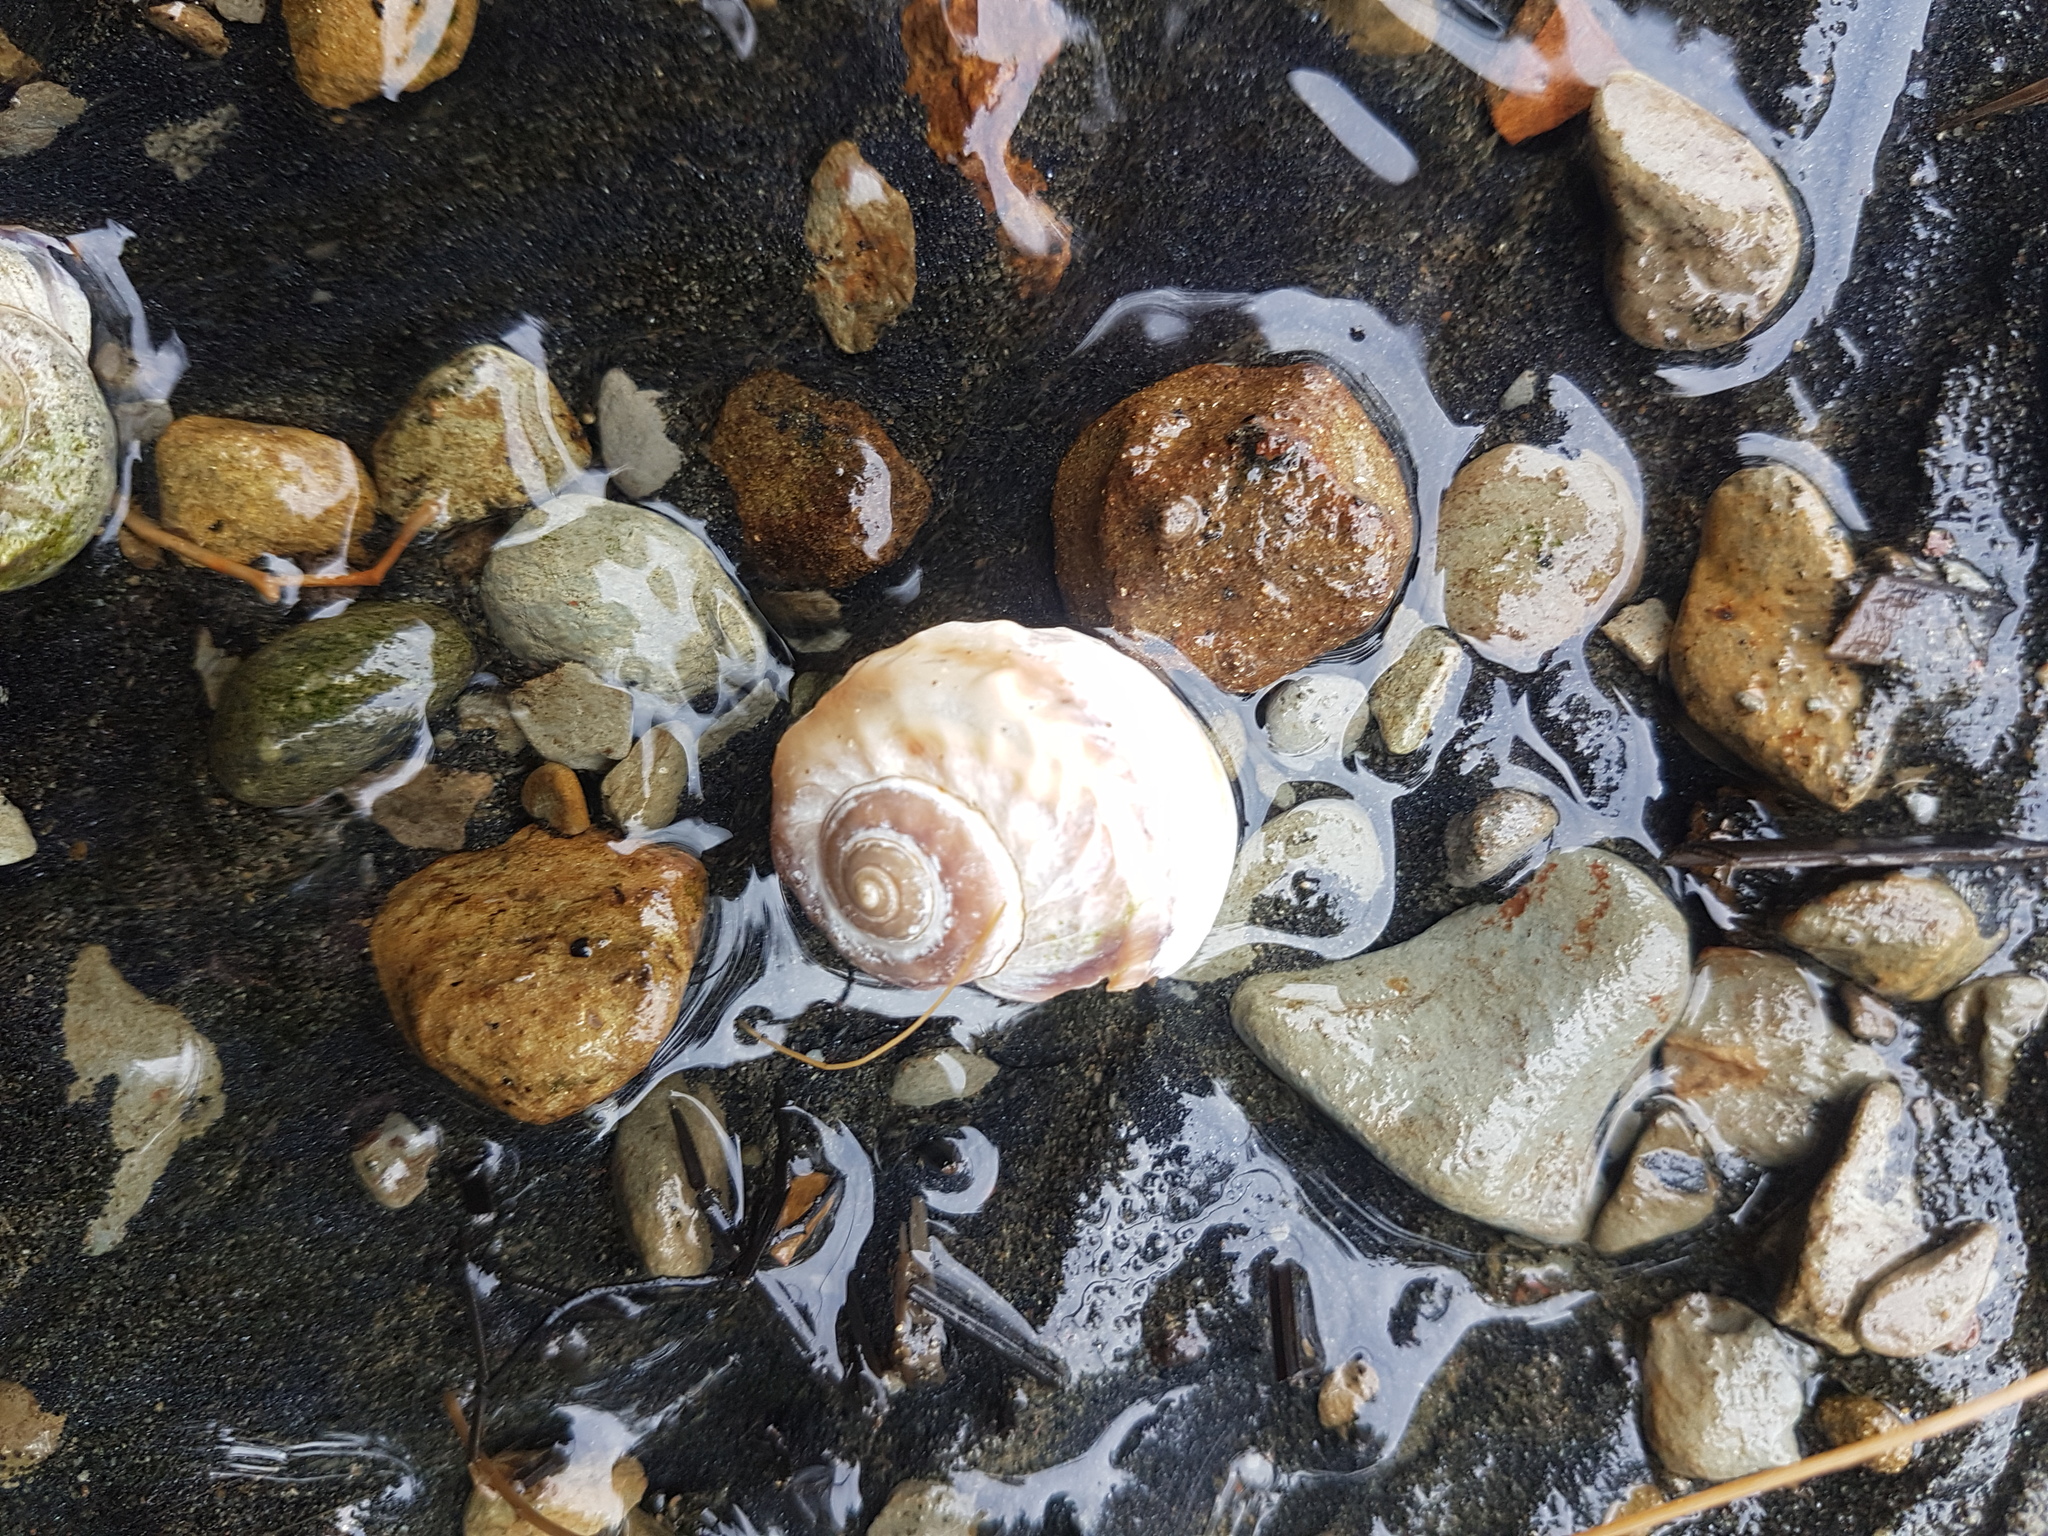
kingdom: Animalia
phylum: Mollusca
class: Gastropoda
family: Amphibolidae
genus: Amphibola
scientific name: Amphibola crenata
